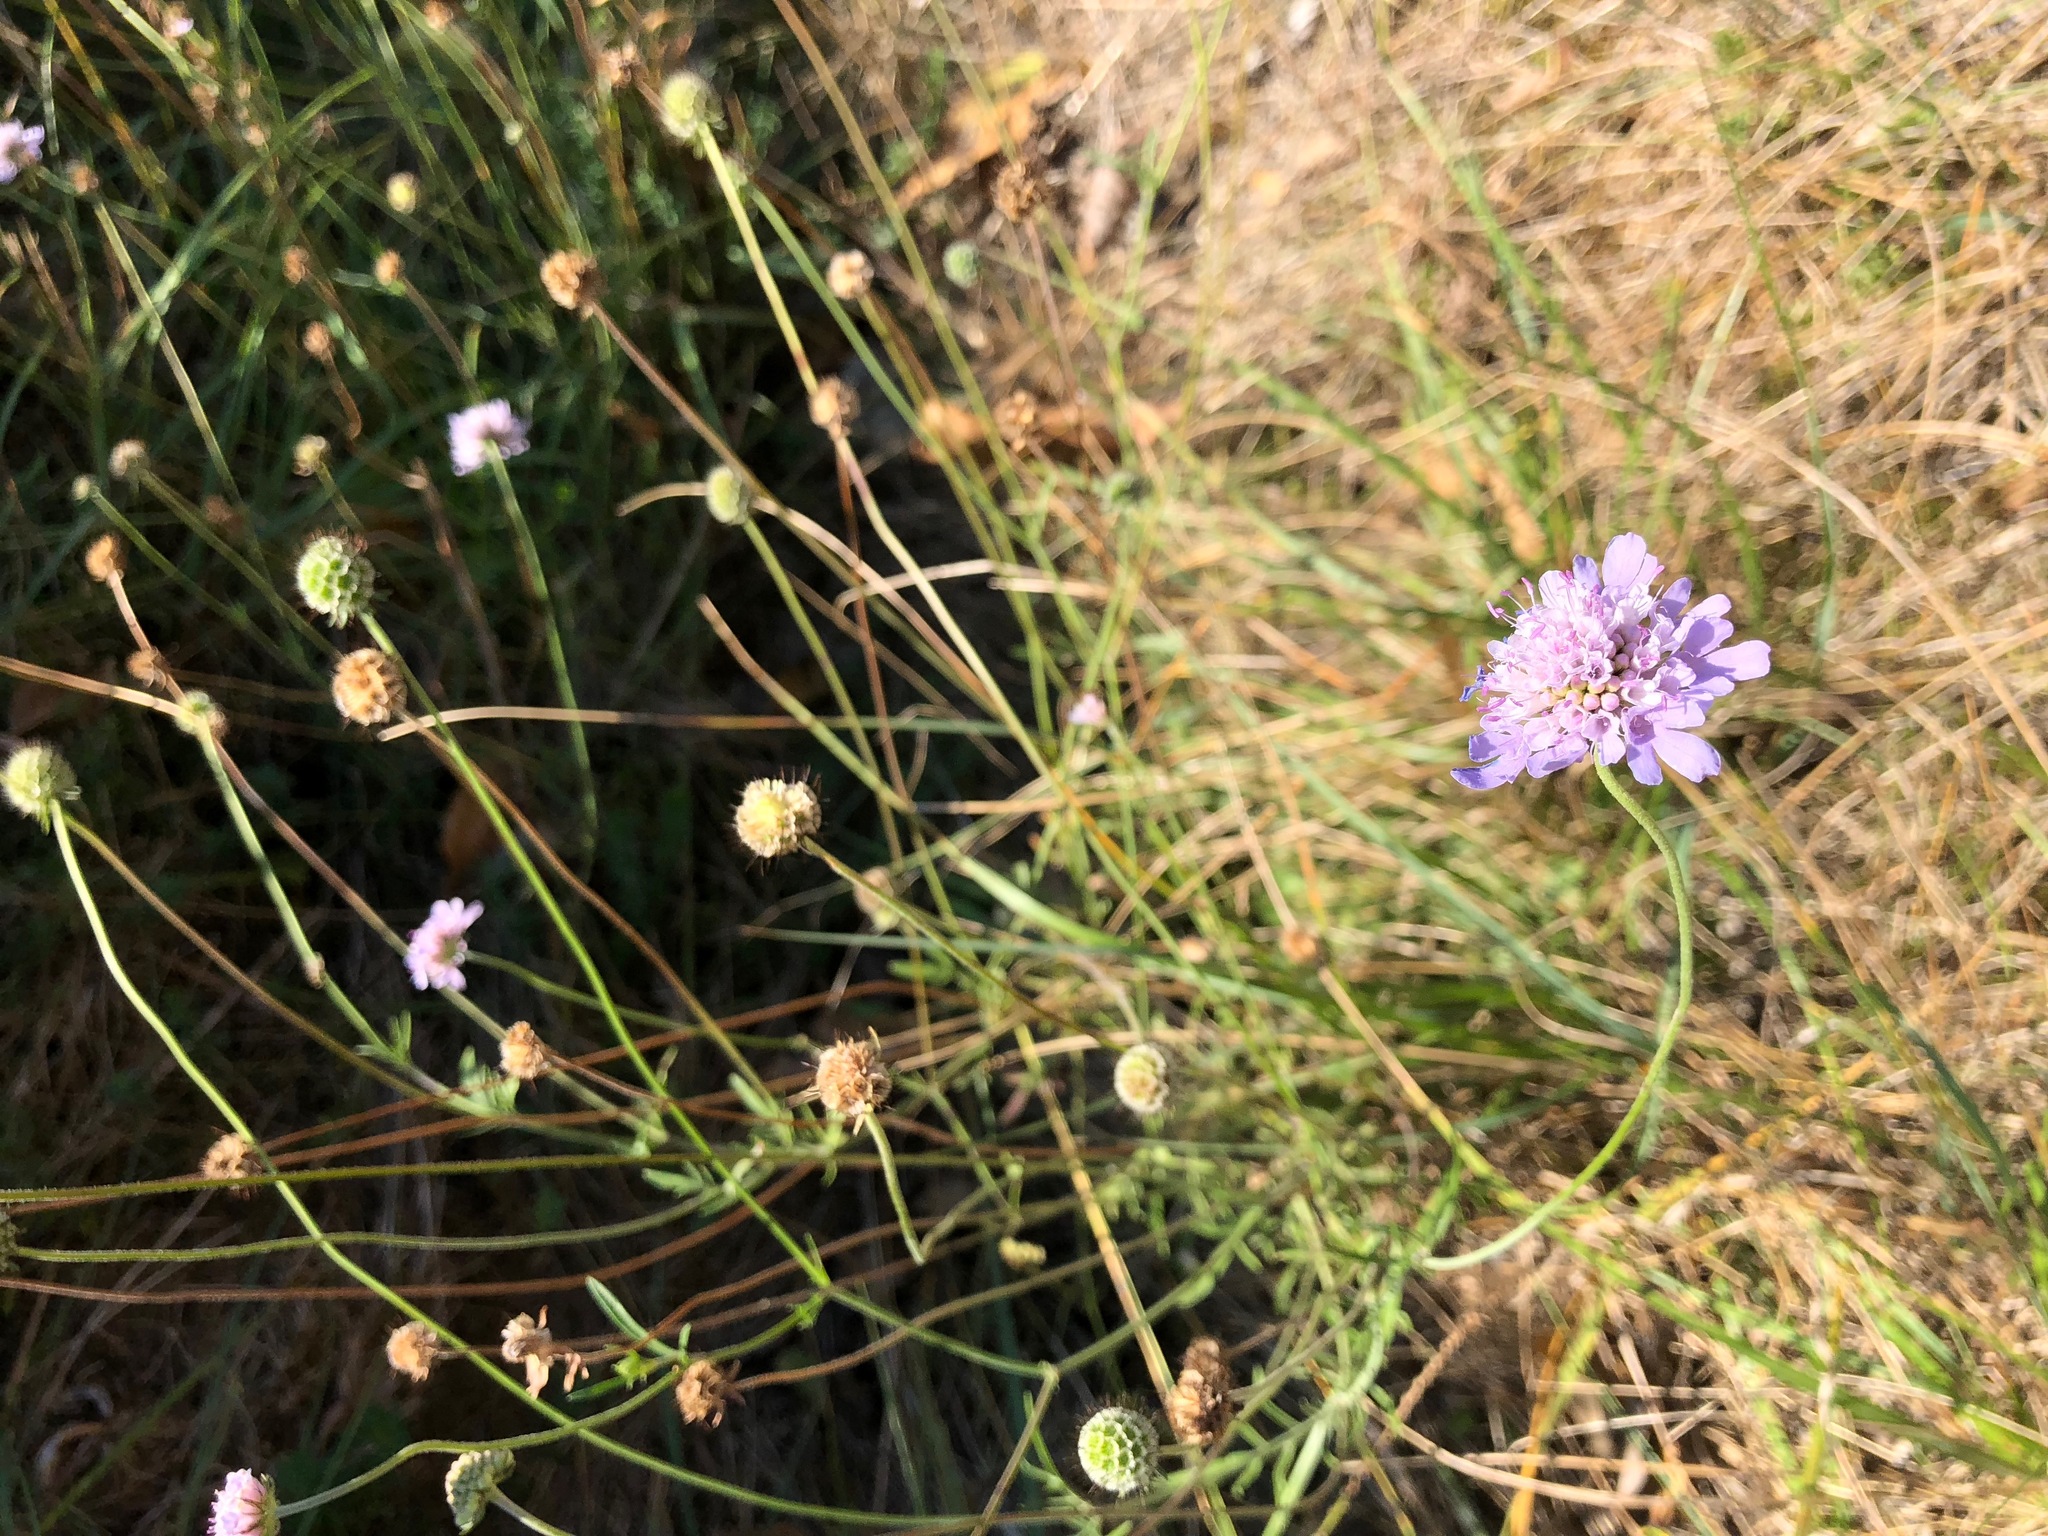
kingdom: Plantae
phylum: Tracheophyta
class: Magnoliopsida
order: Dipsacales
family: Caprifoliaceae
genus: Scabiosa
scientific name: Scabiosa columbaria
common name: Small scabious
